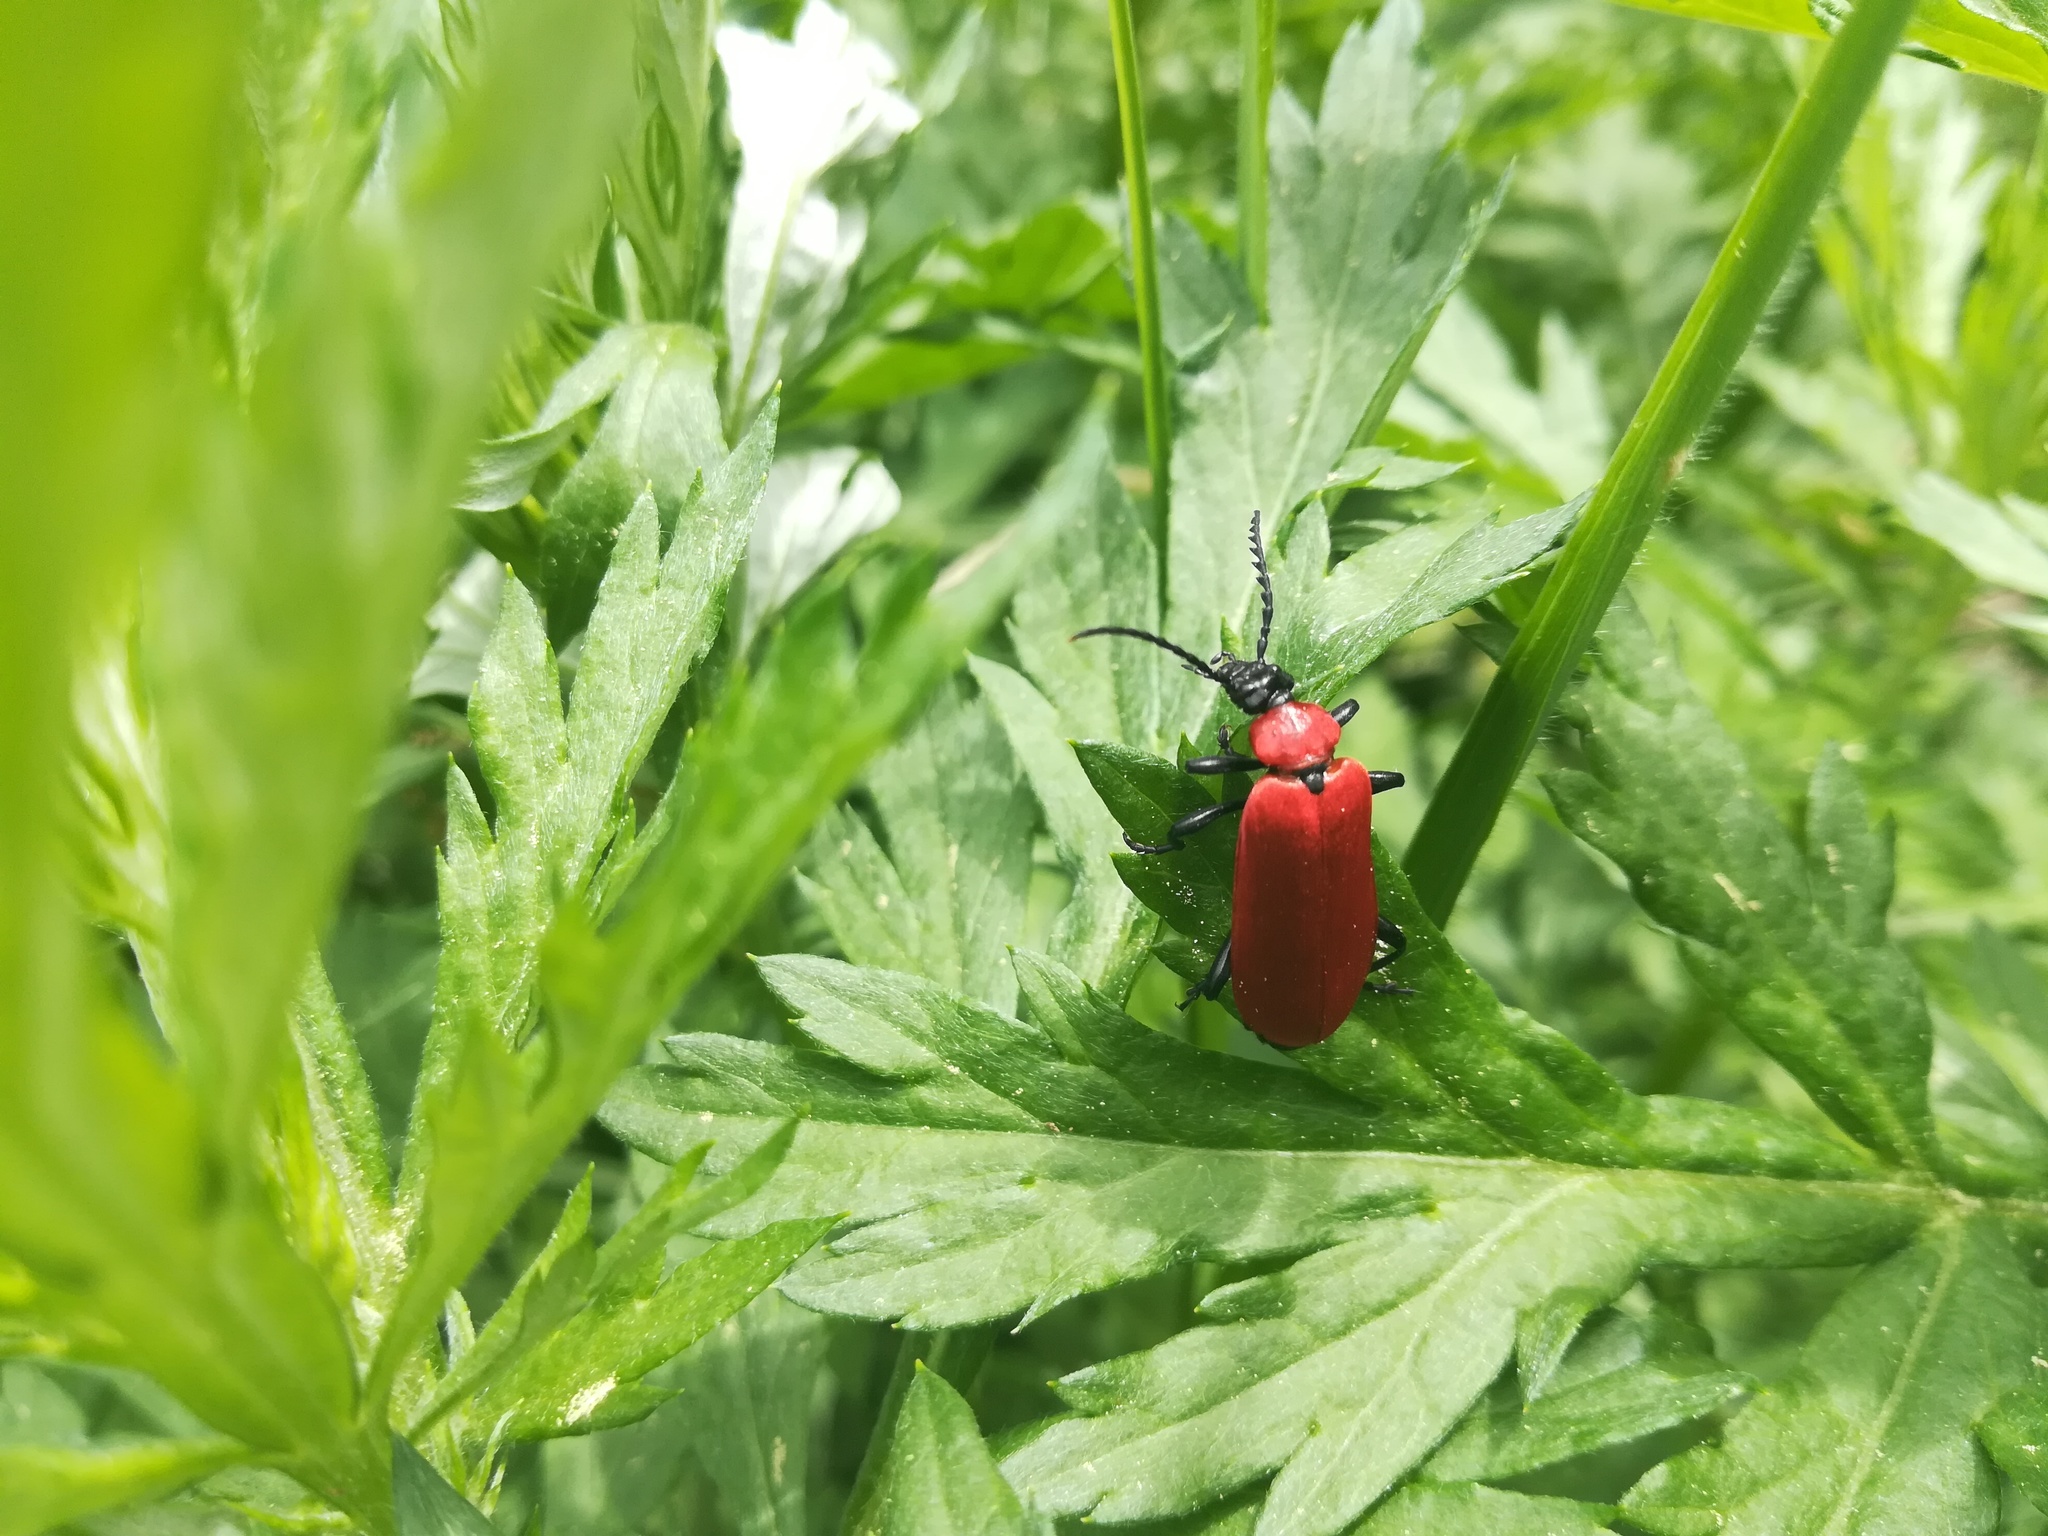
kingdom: Animalia
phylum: Arthropoda
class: Insecta
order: Coleoptera
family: Pyrochroidae
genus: Pyrochroa
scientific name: Pyrochroa coccinea
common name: Black-headed cardinal beetle
